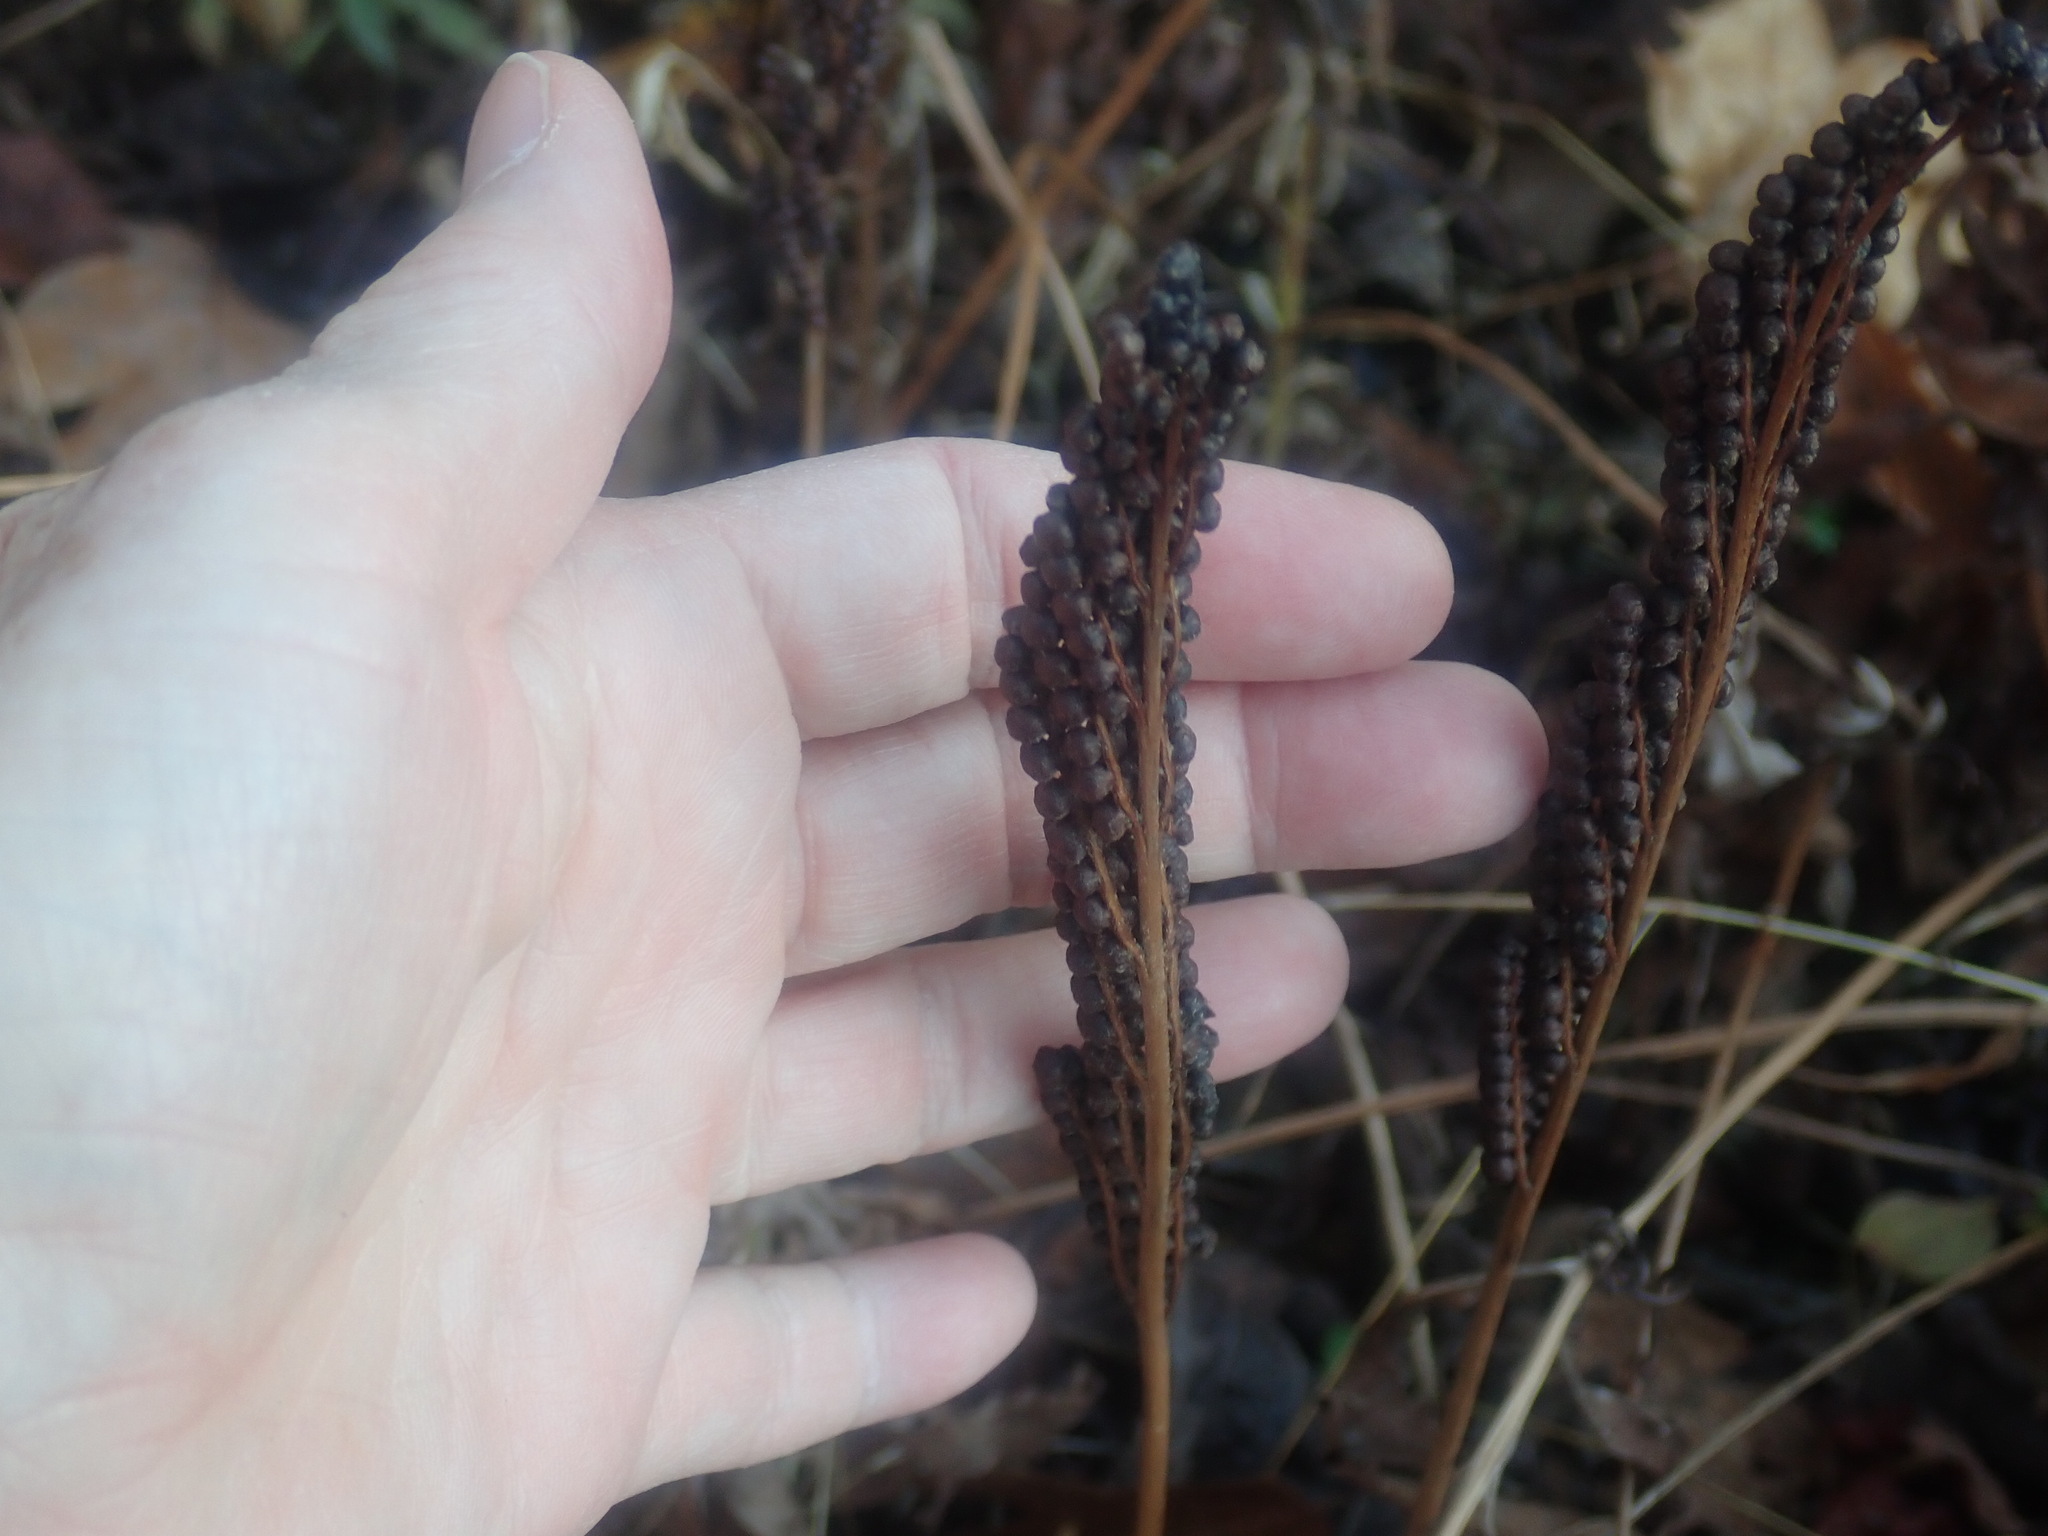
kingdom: Plantae
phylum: Tracheophyta
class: Polypodiopsida
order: Polypodiales
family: Onocleaceae
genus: Onoclea
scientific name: Onoclea sensibilis
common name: Sensitive fern
